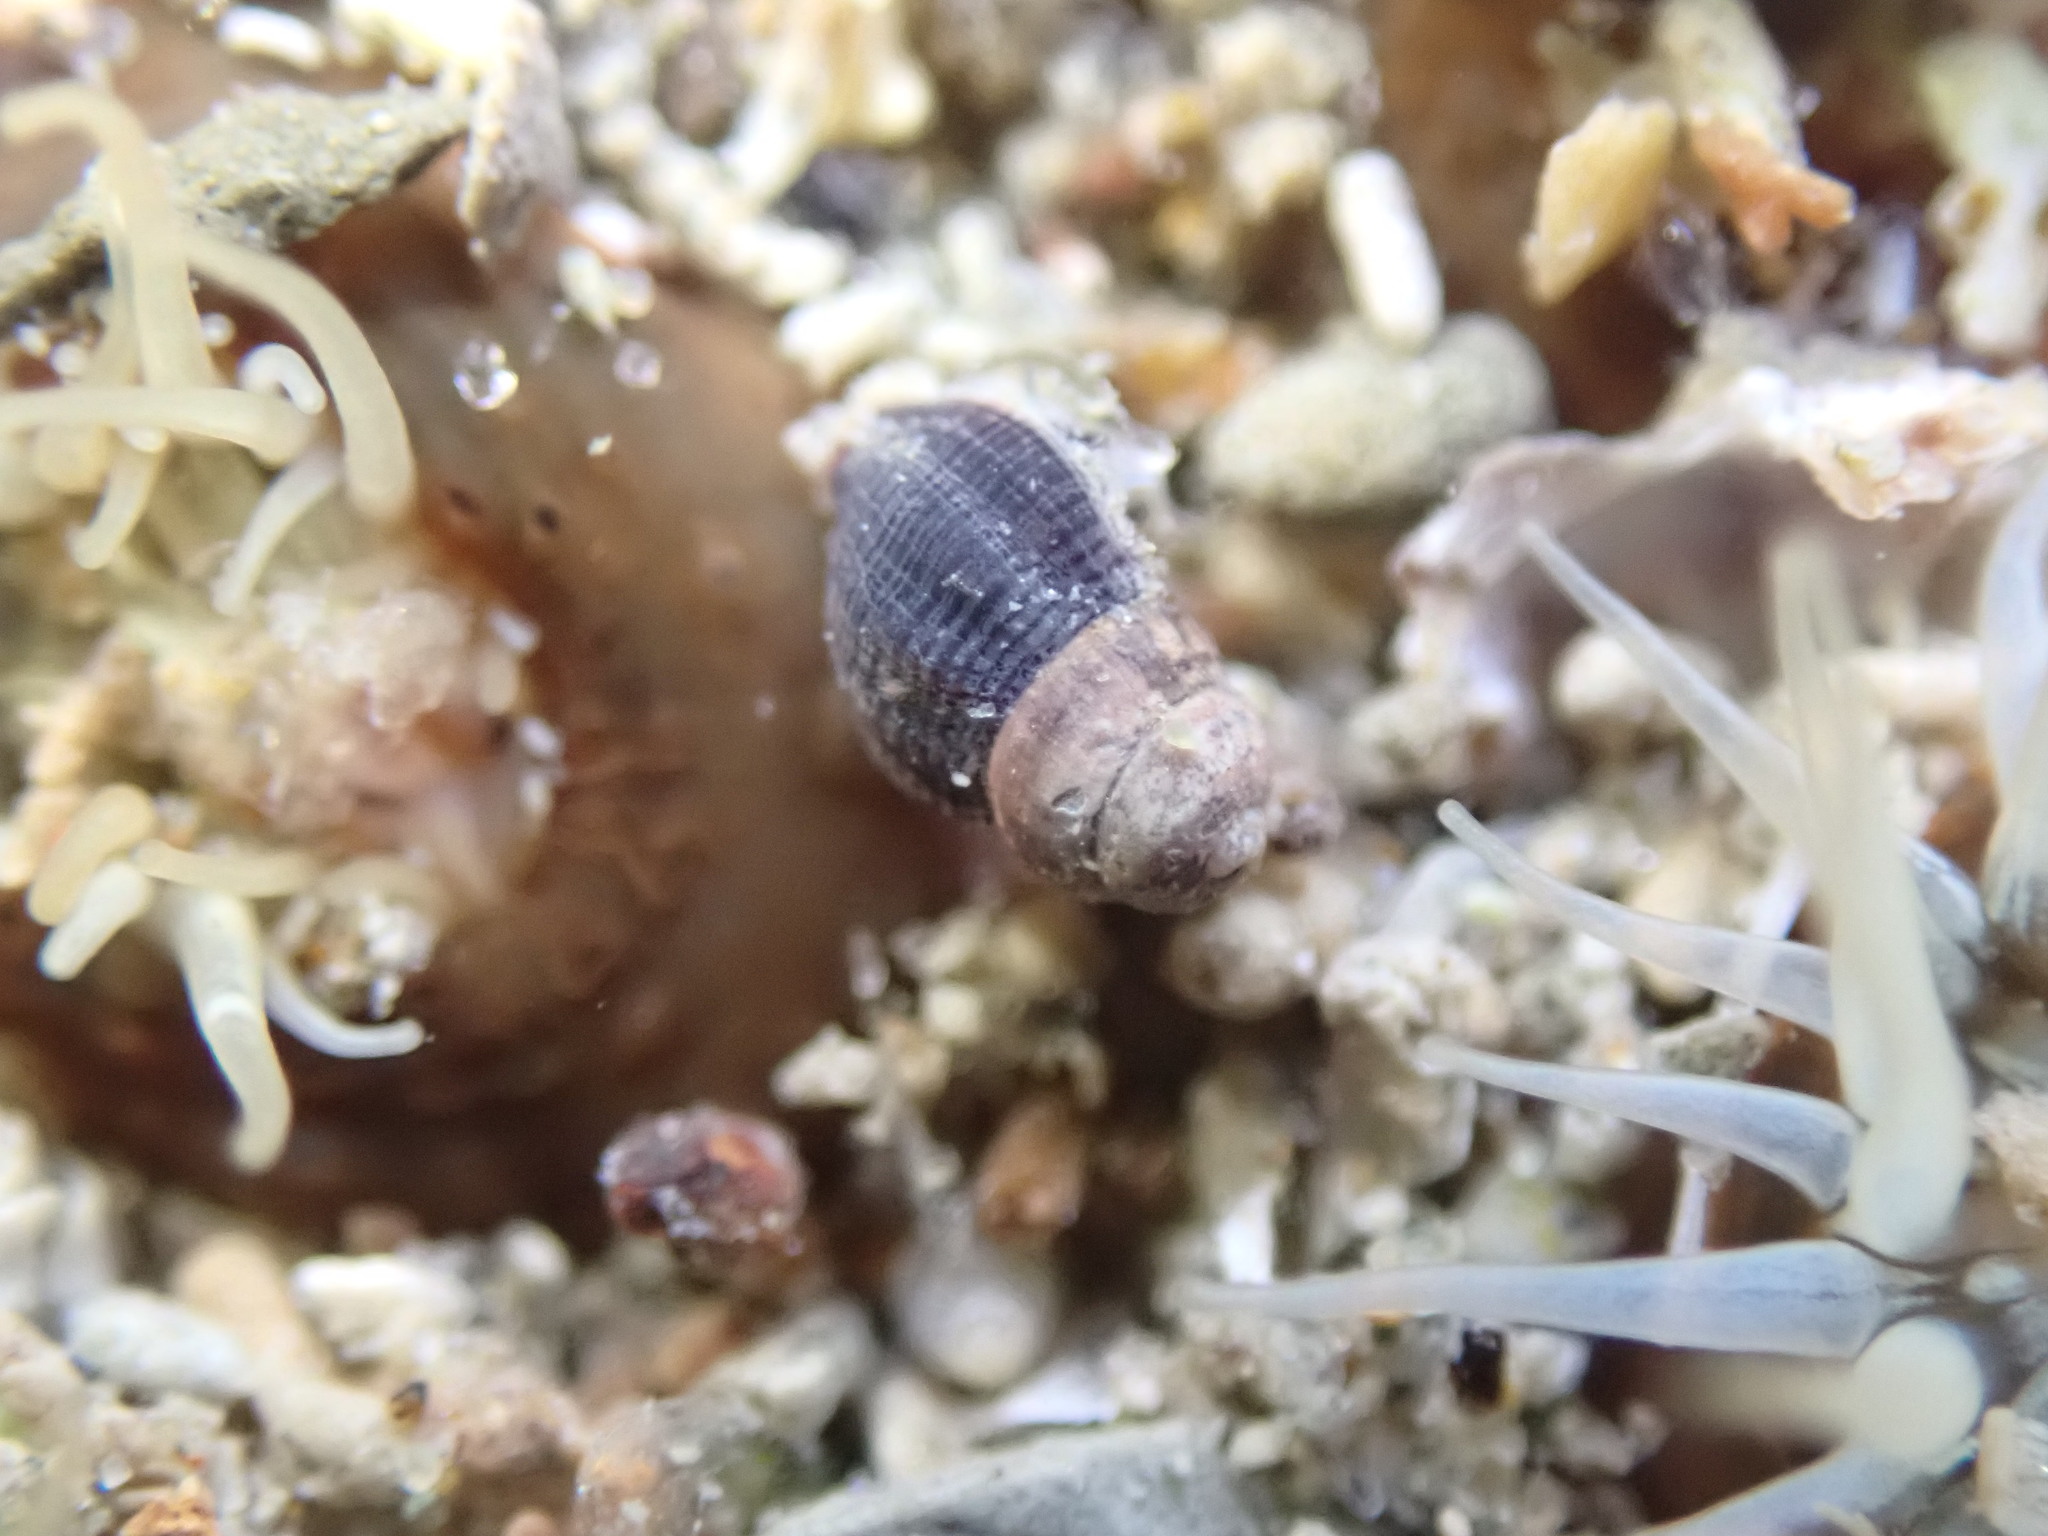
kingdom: Animalia
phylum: Mollusca
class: Gastropoda
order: Neogastropoda
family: Cominellidae
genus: Cominella
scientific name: Cominella virgata
